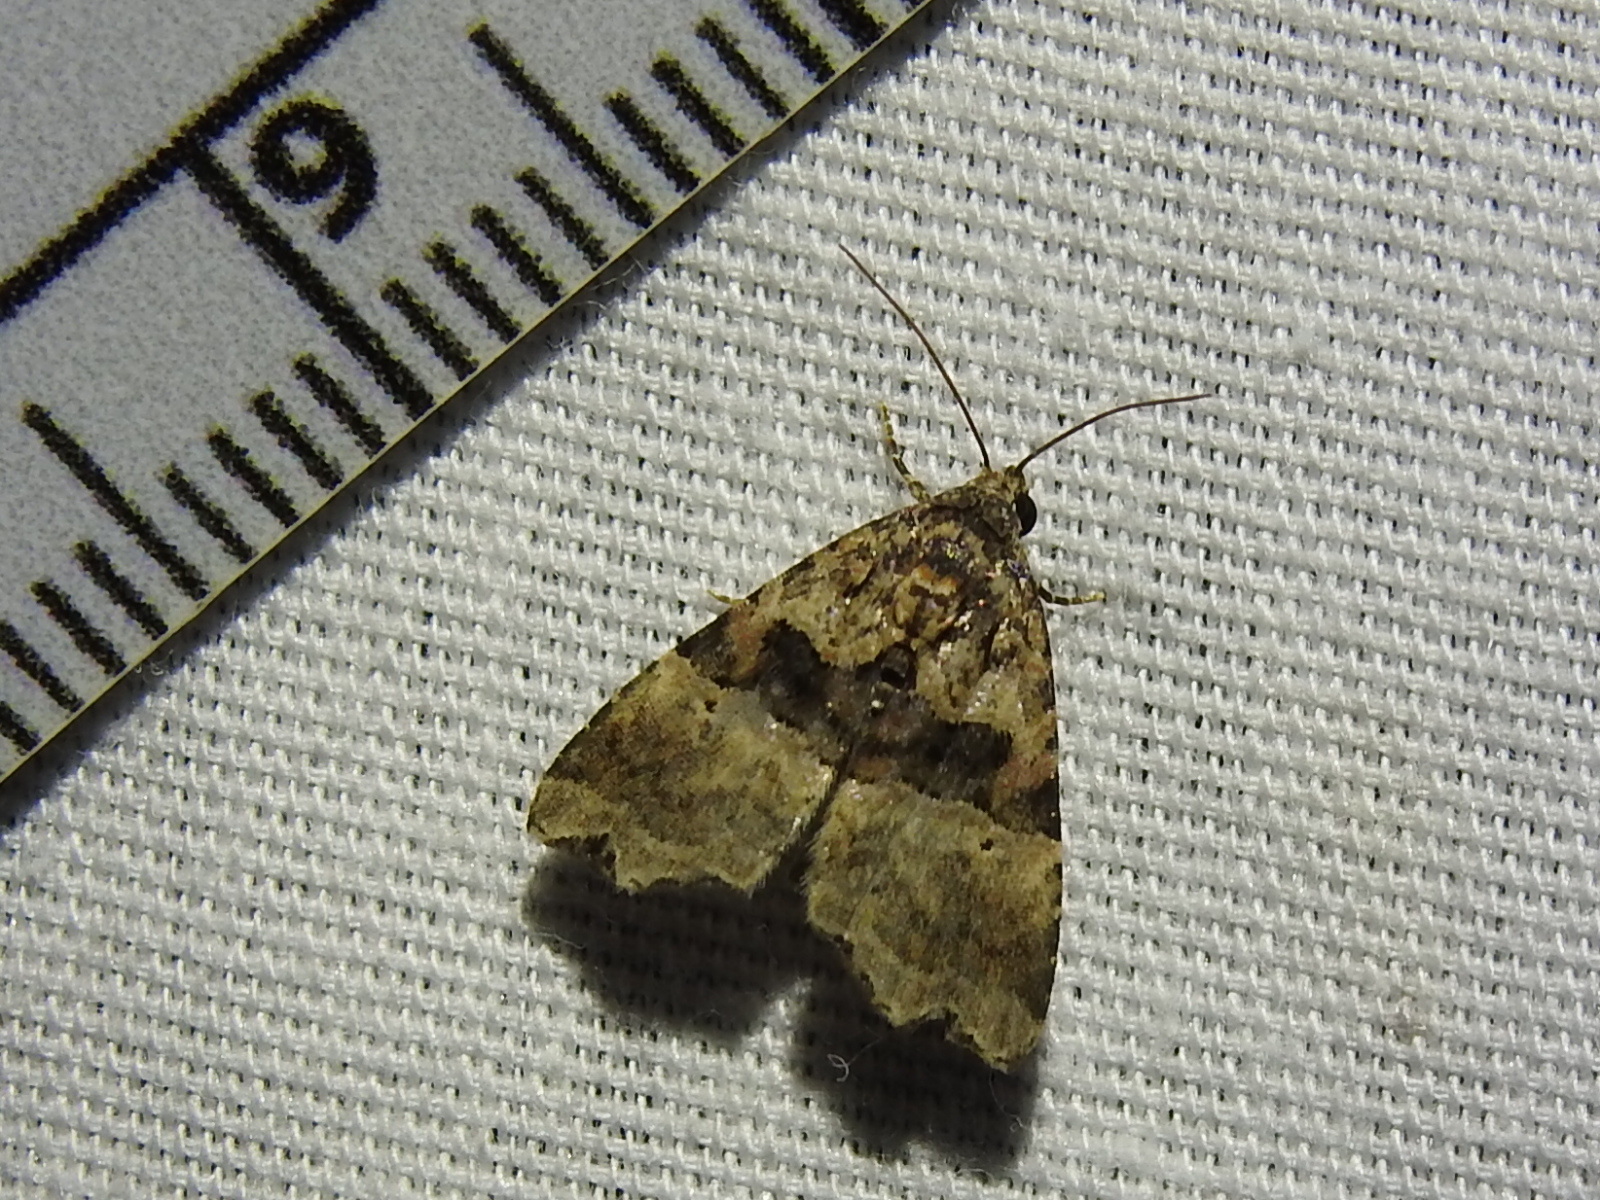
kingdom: Animalia
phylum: Arthropoda
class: Insecta
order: Lepidoptera
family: Noctuidae
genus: Cobubatha
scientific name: Cobubatha numa
